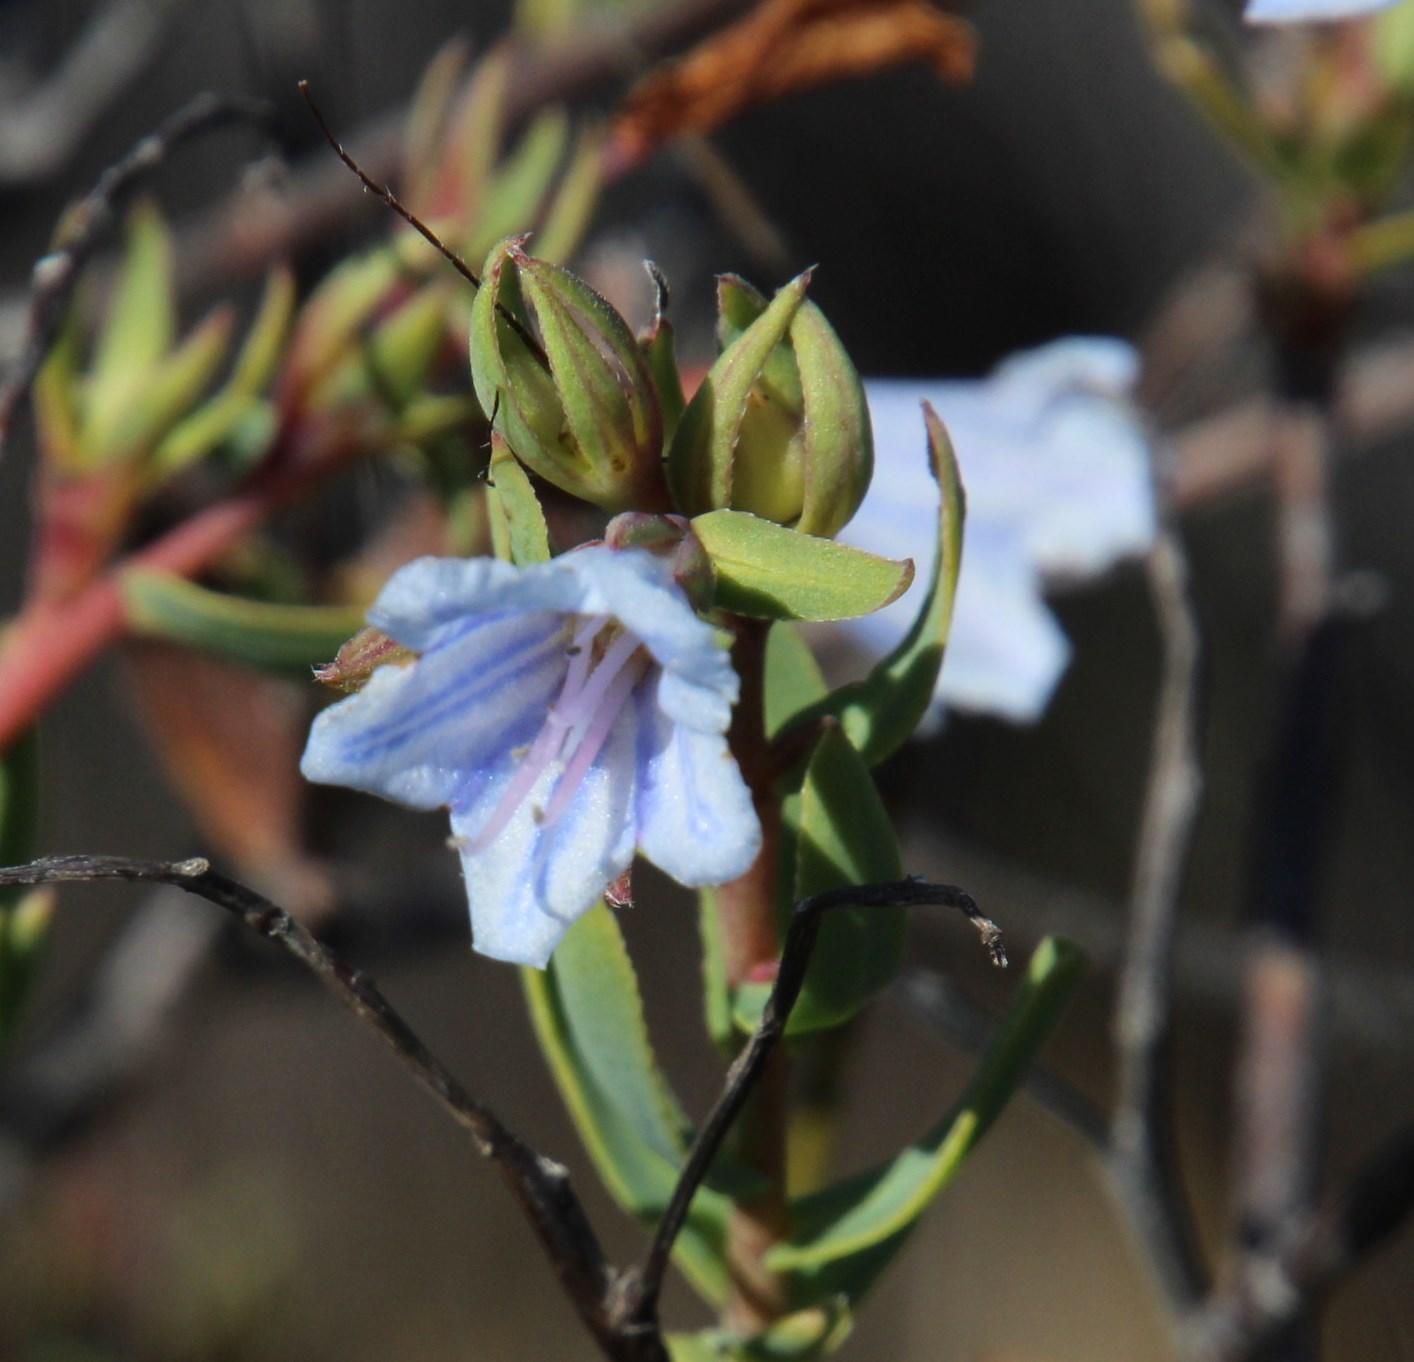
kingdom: Plantae
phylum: Tracheophyta
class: Magnoliopsida
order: Boraginales
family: Boraginaceae
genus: Lobostemon
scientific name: Lobostemon glaucophyllus
